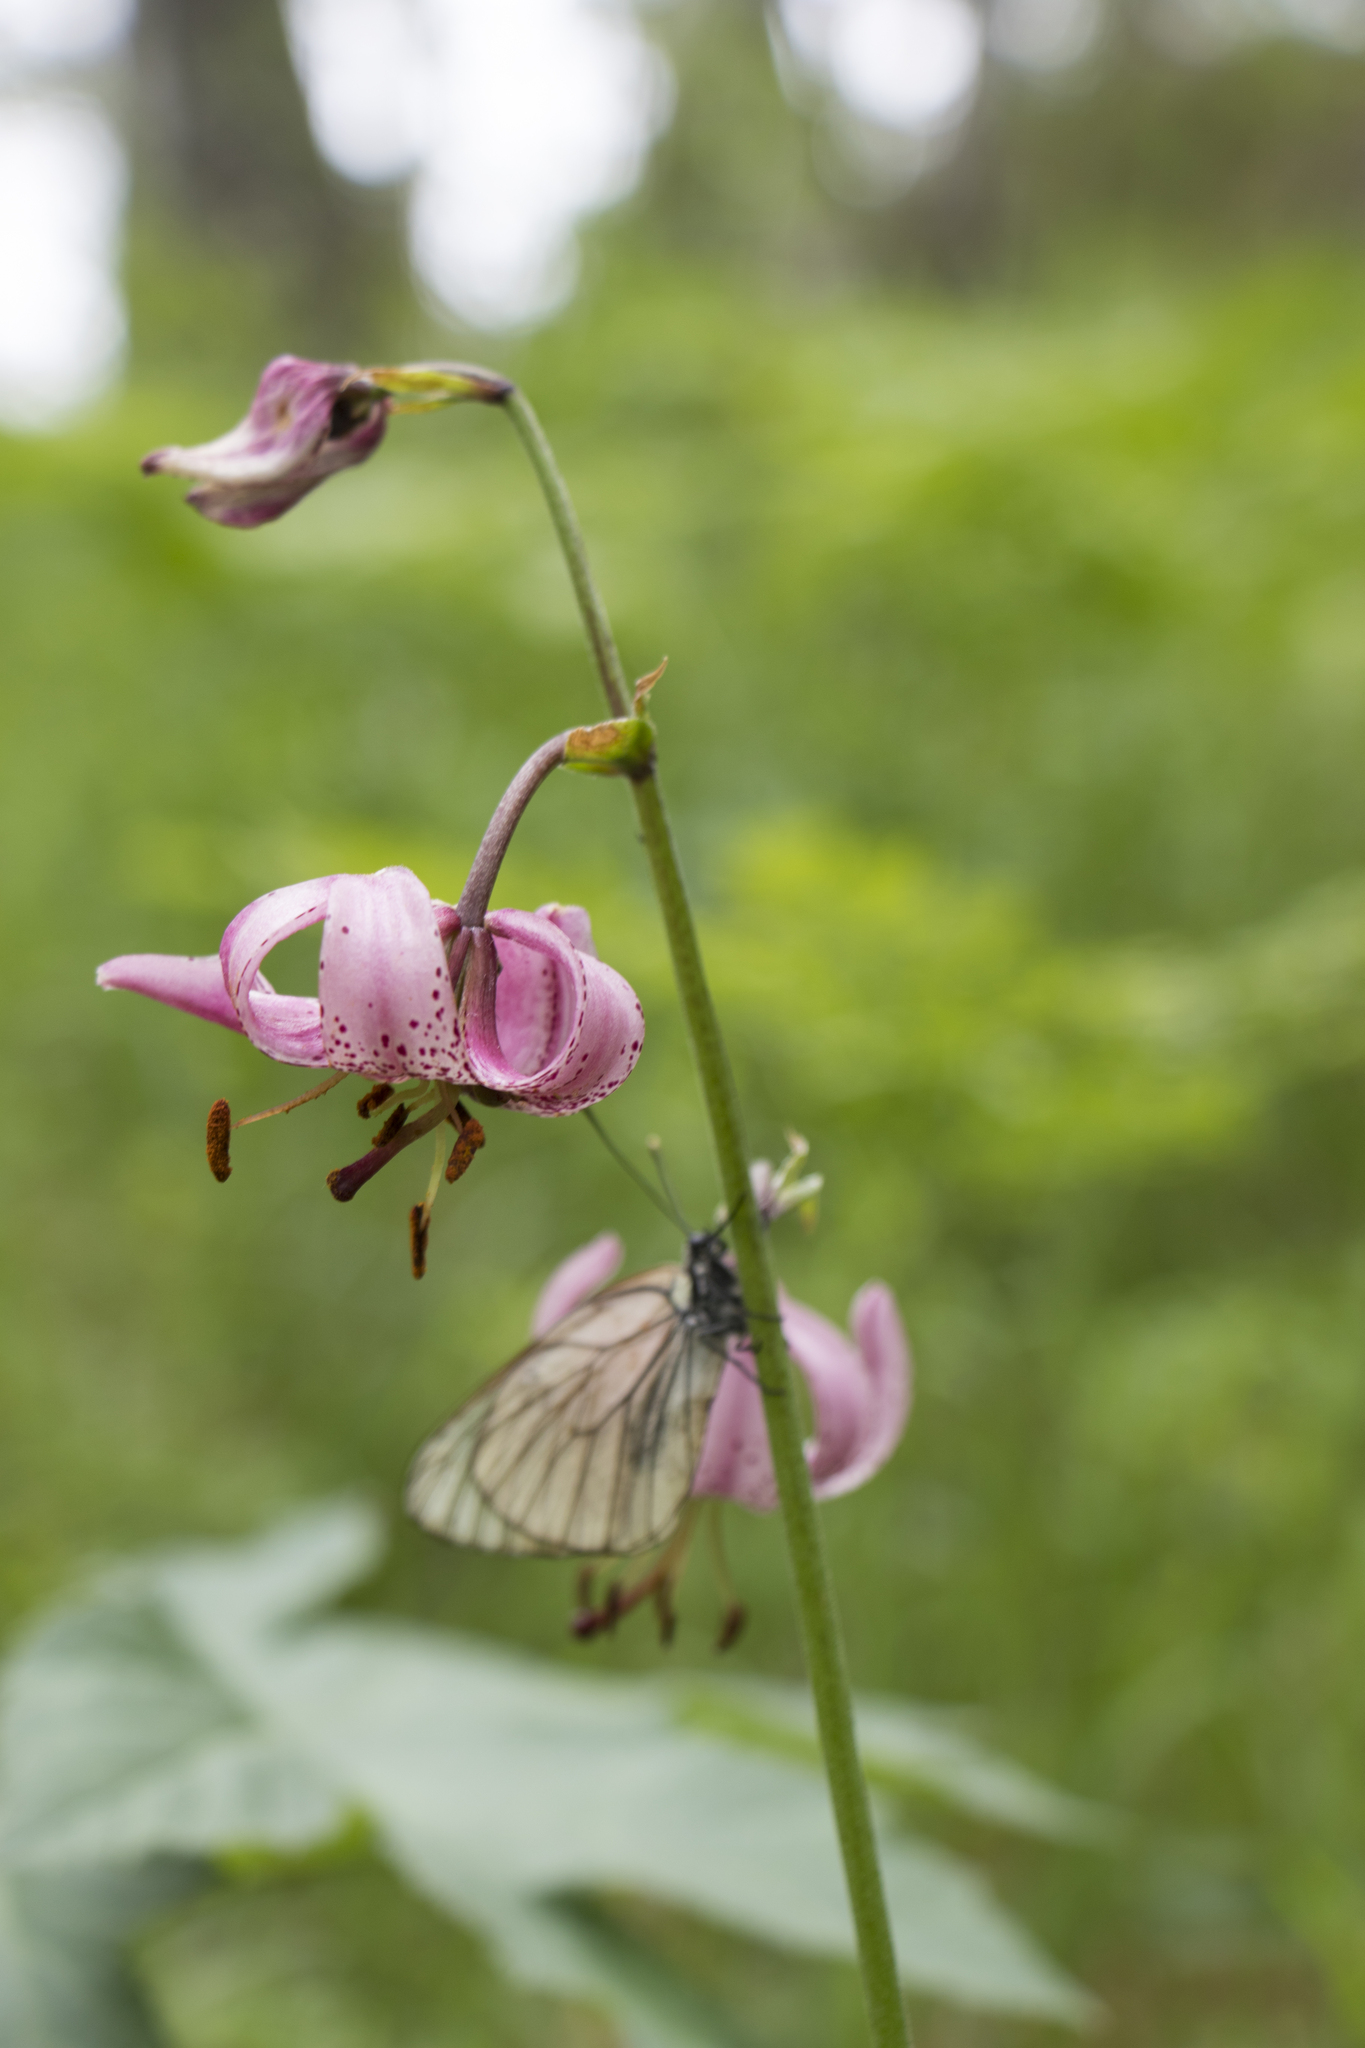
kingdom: Plantae
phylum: Tracheophyta
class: Liliopsida
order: Liliales
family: Liliaceae
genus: Lilium
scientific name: Lilium martagon
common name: Martagon lily
